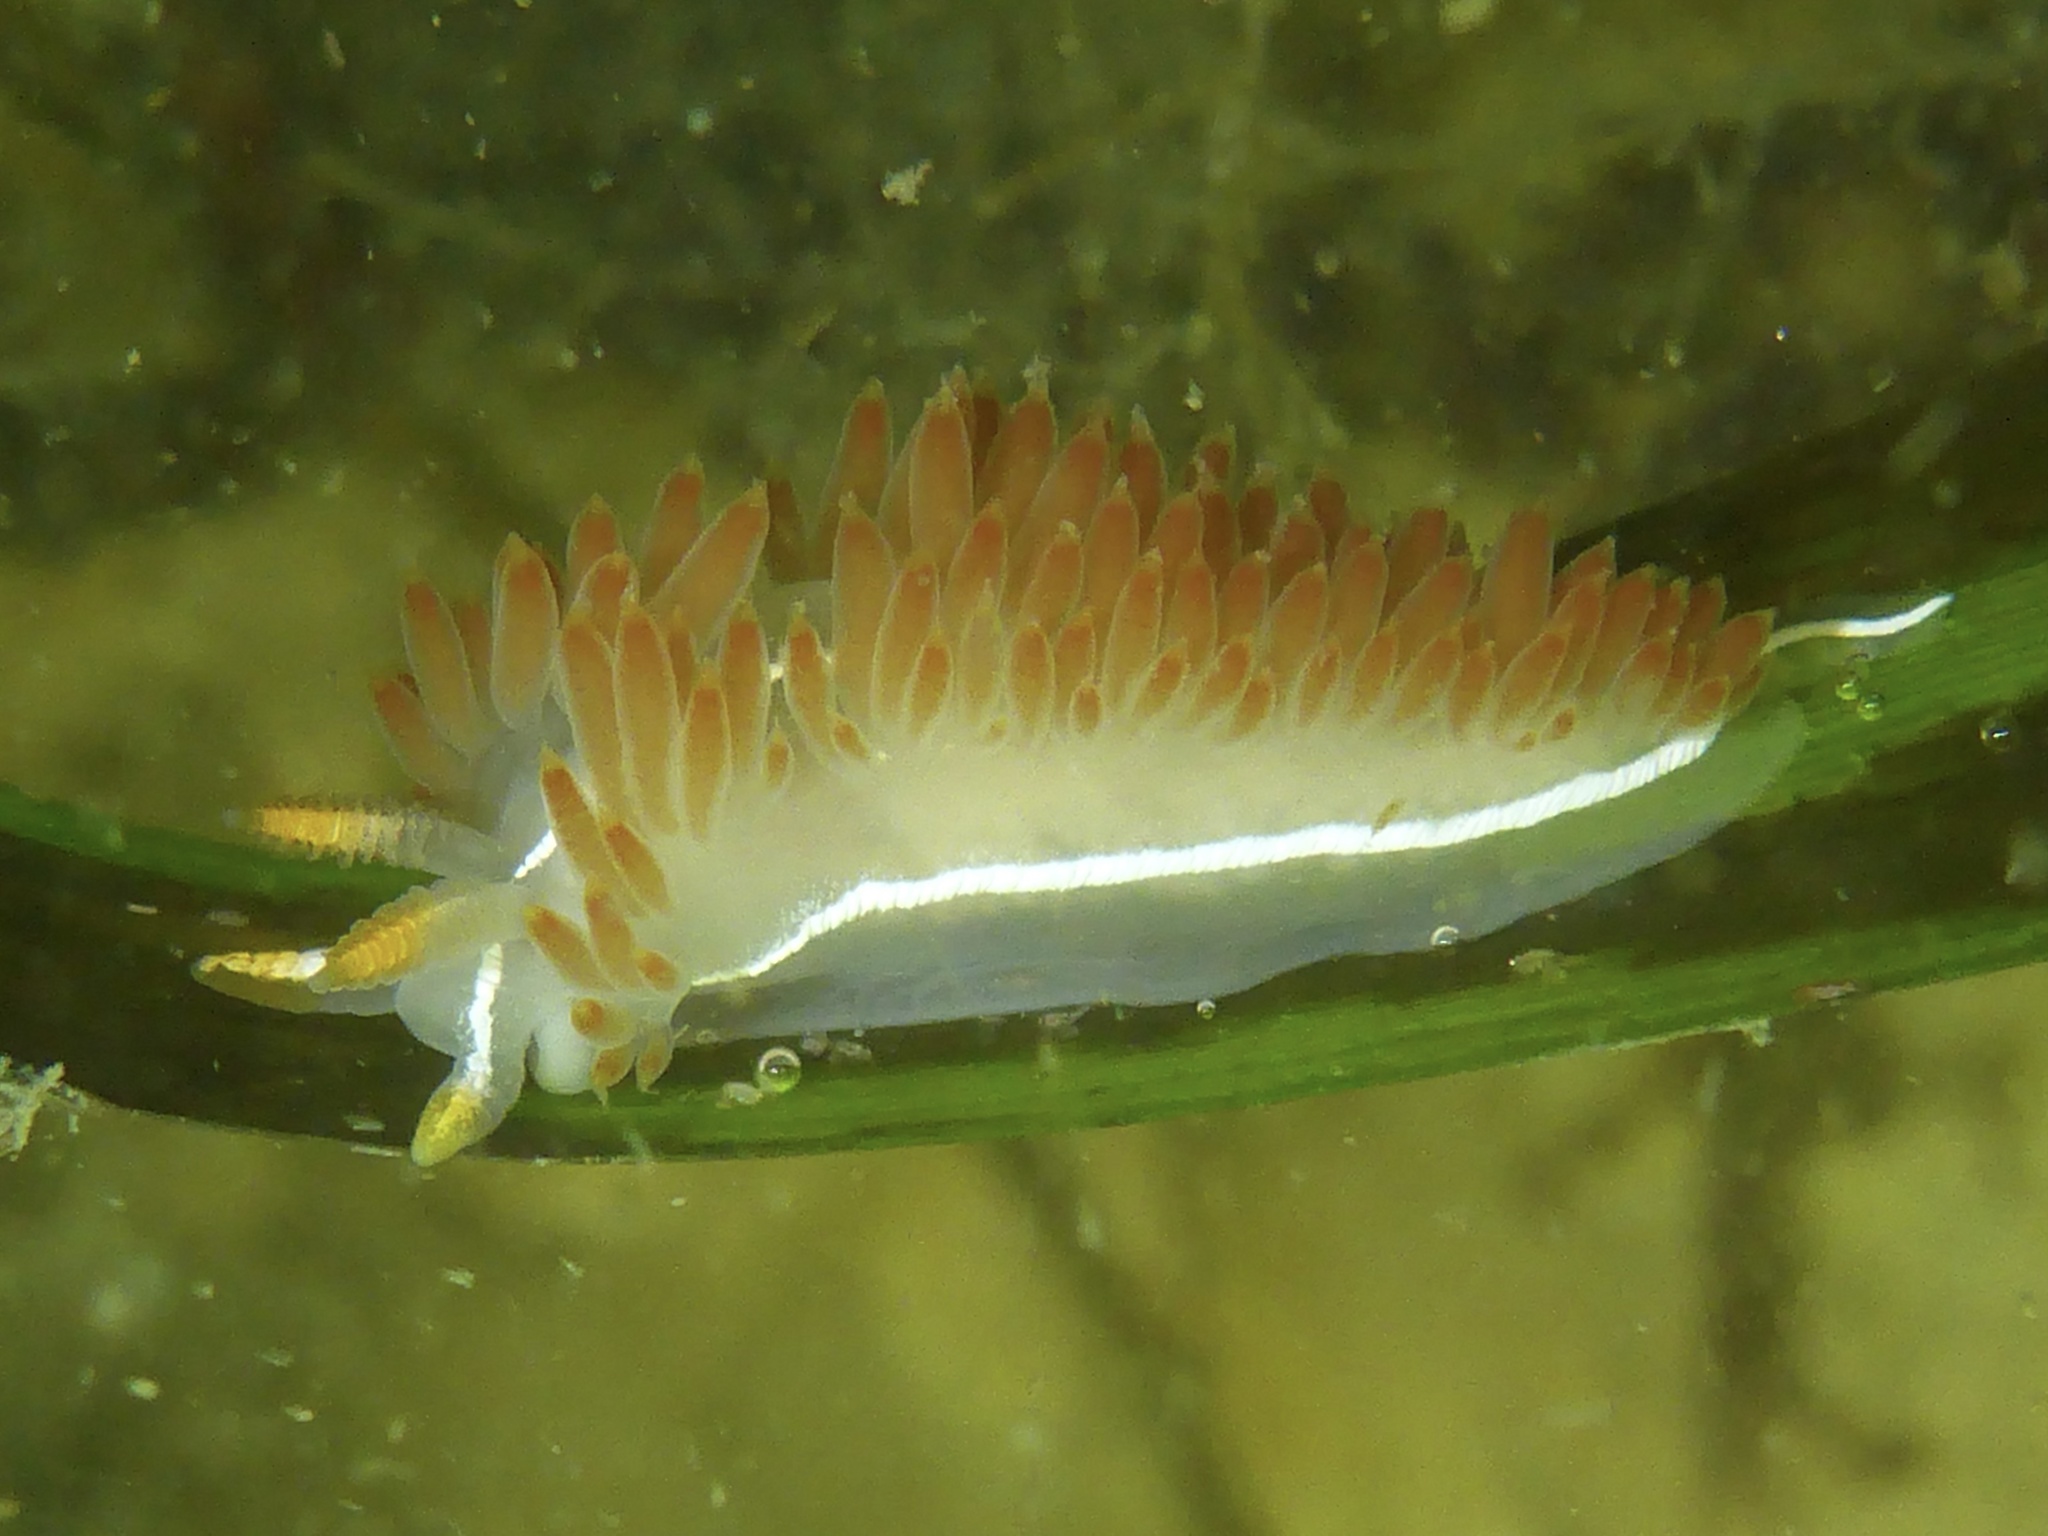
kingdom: Animalia
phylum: Mollusca
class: Gastropoda
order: Nudibranchia
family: Coryphellidae
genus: Coryphella
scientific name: Coryphella trilineata
